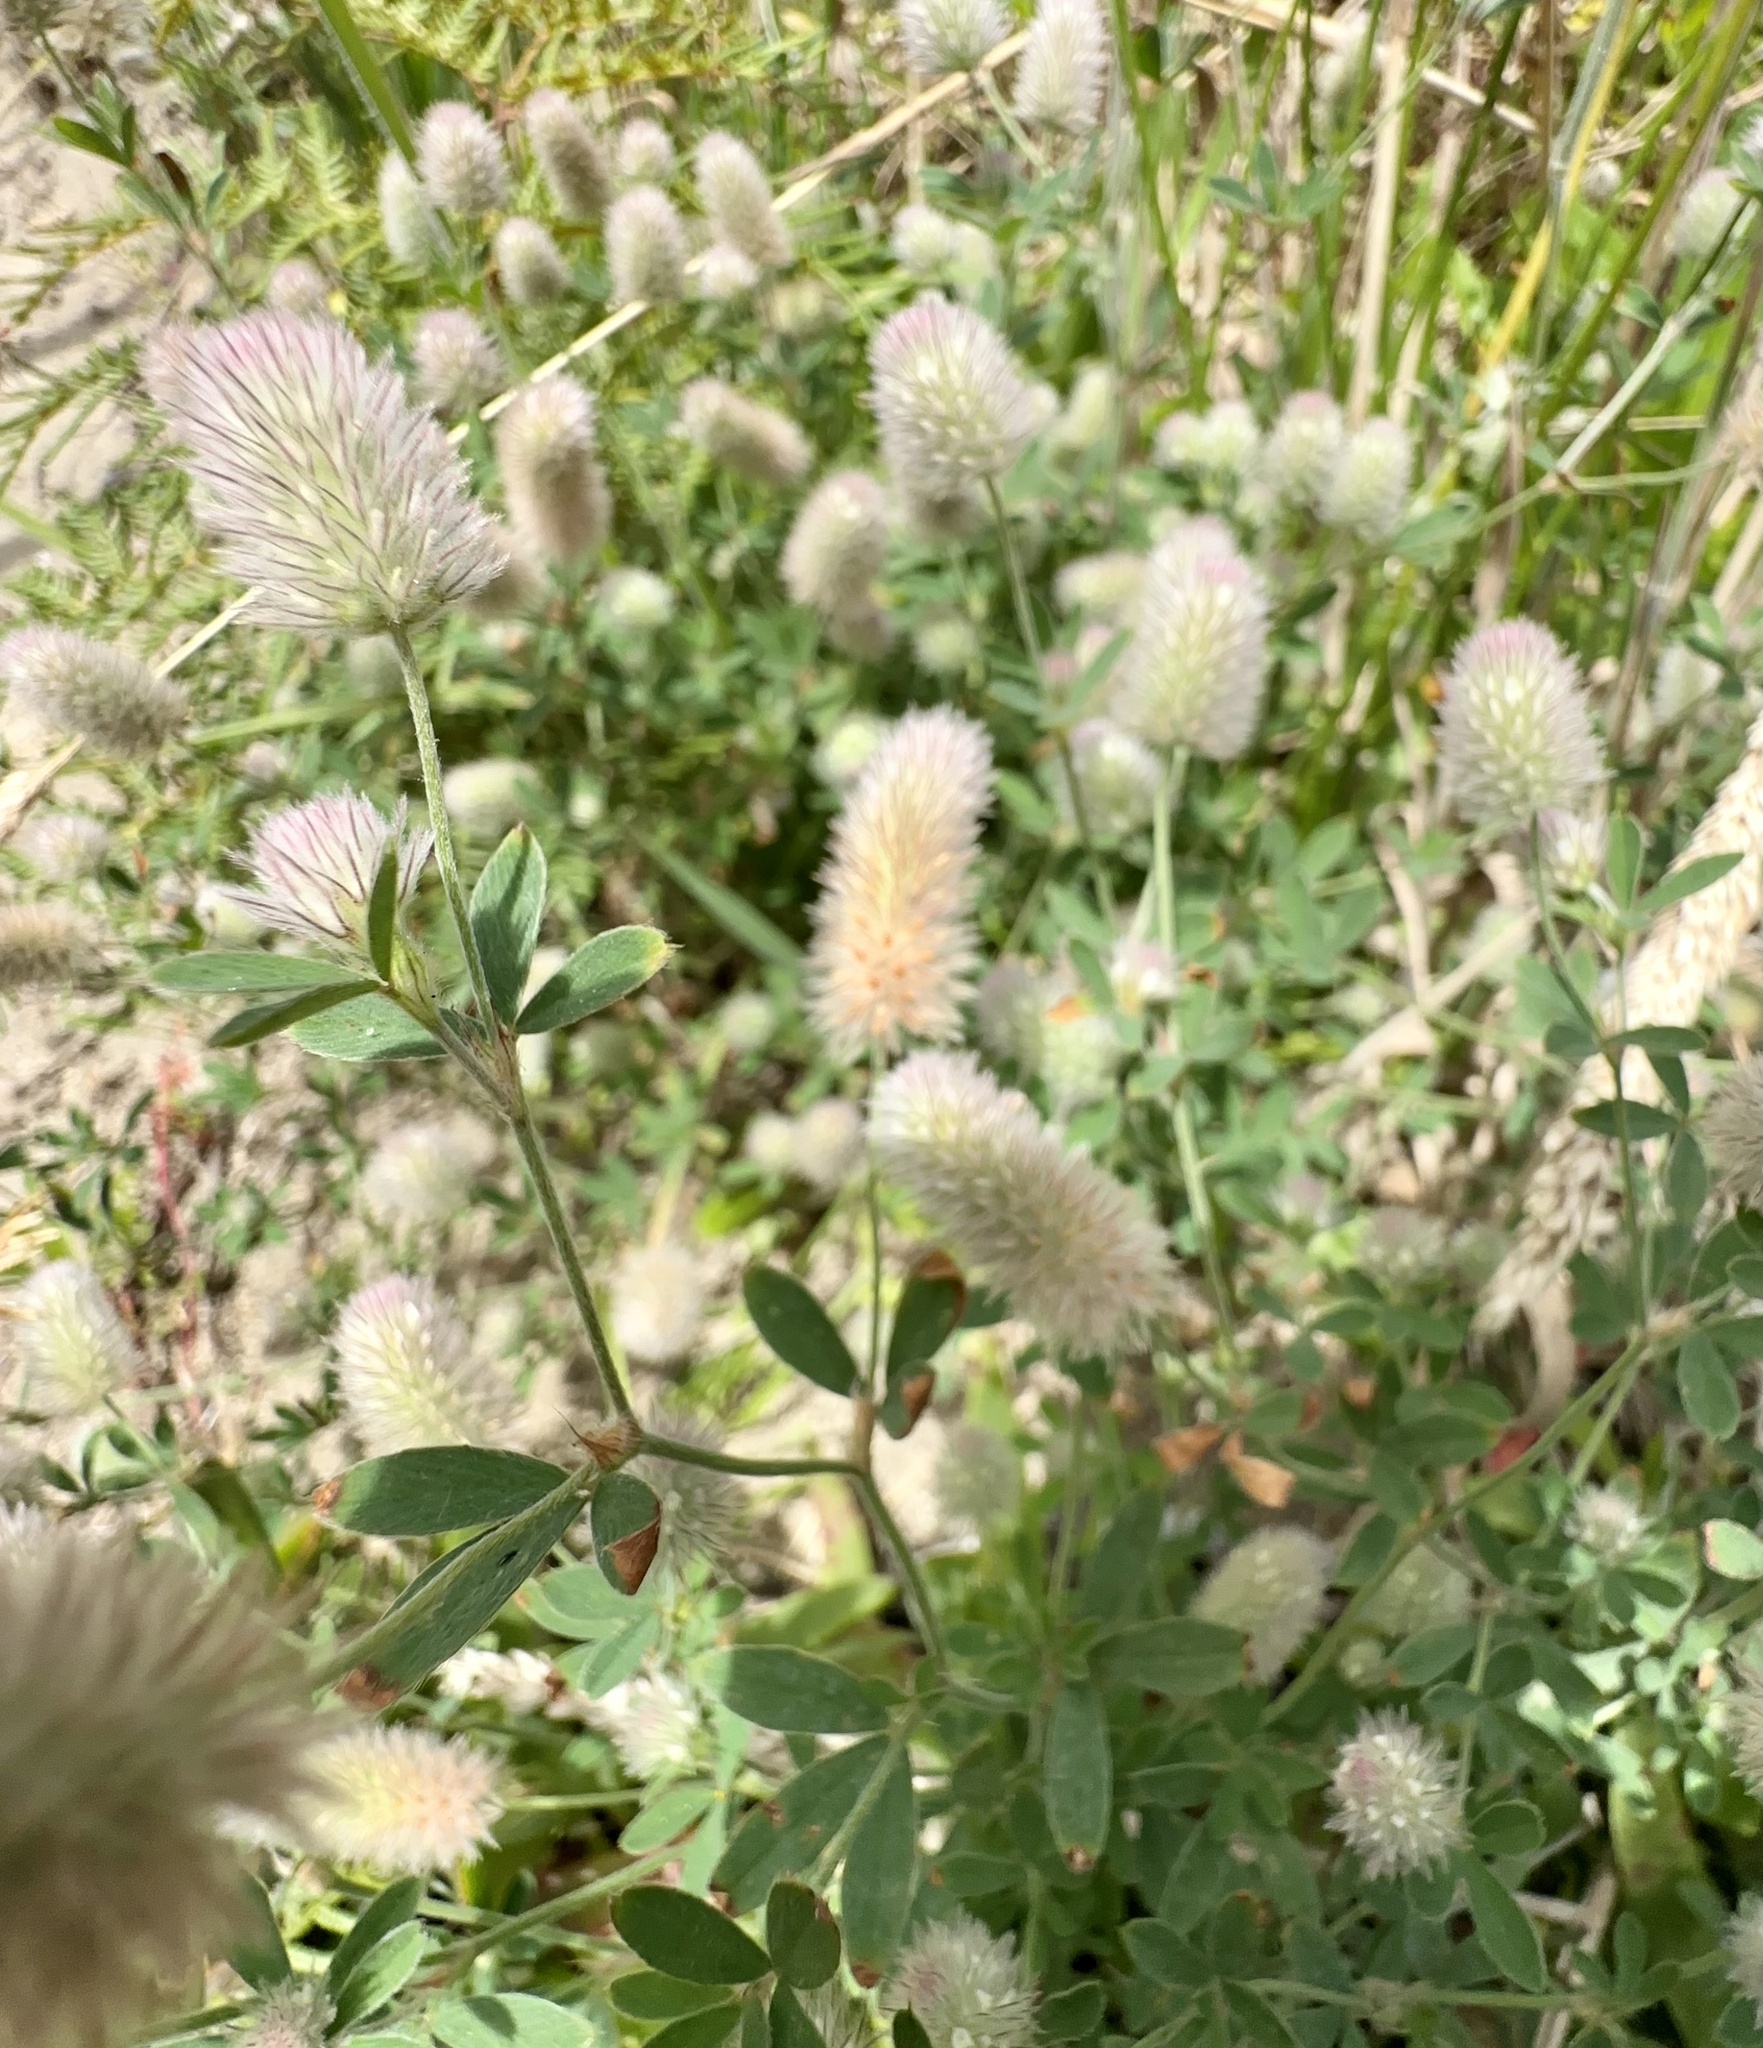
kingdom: Plantae
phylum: Tracheophyta
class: Magnoliopsida
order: Fabales
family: Fabaceae
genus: Trifolium
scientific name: Trifolium arvense
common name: Hare's-foot clover
